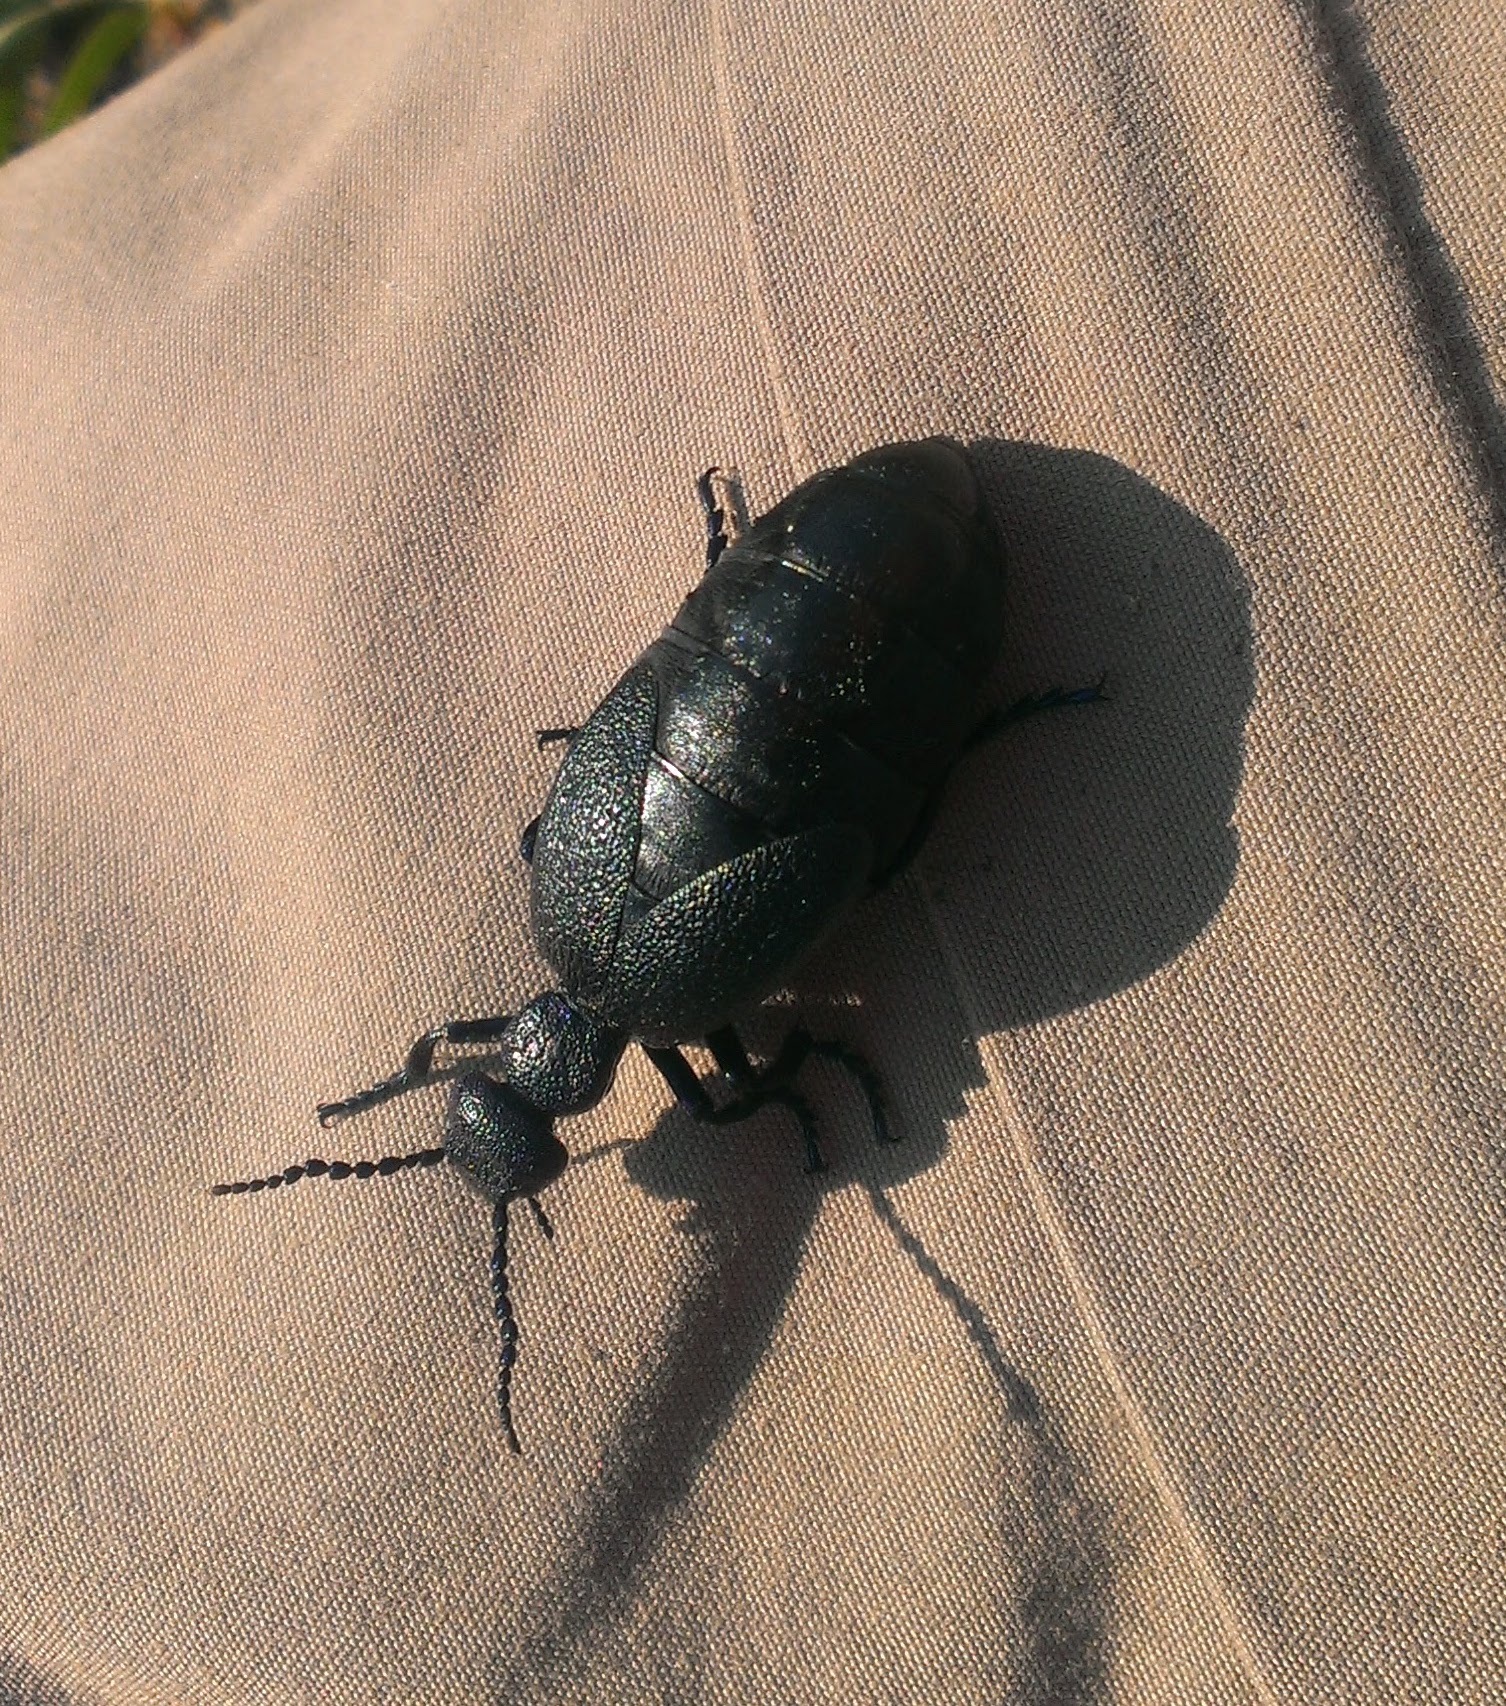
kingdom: Animalia
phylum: Arthropoda
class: Insecta
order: Coleoptera
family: Meloidae
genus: Meloe
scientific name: Meloe proscarabaeus
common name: Black oil-beetle
